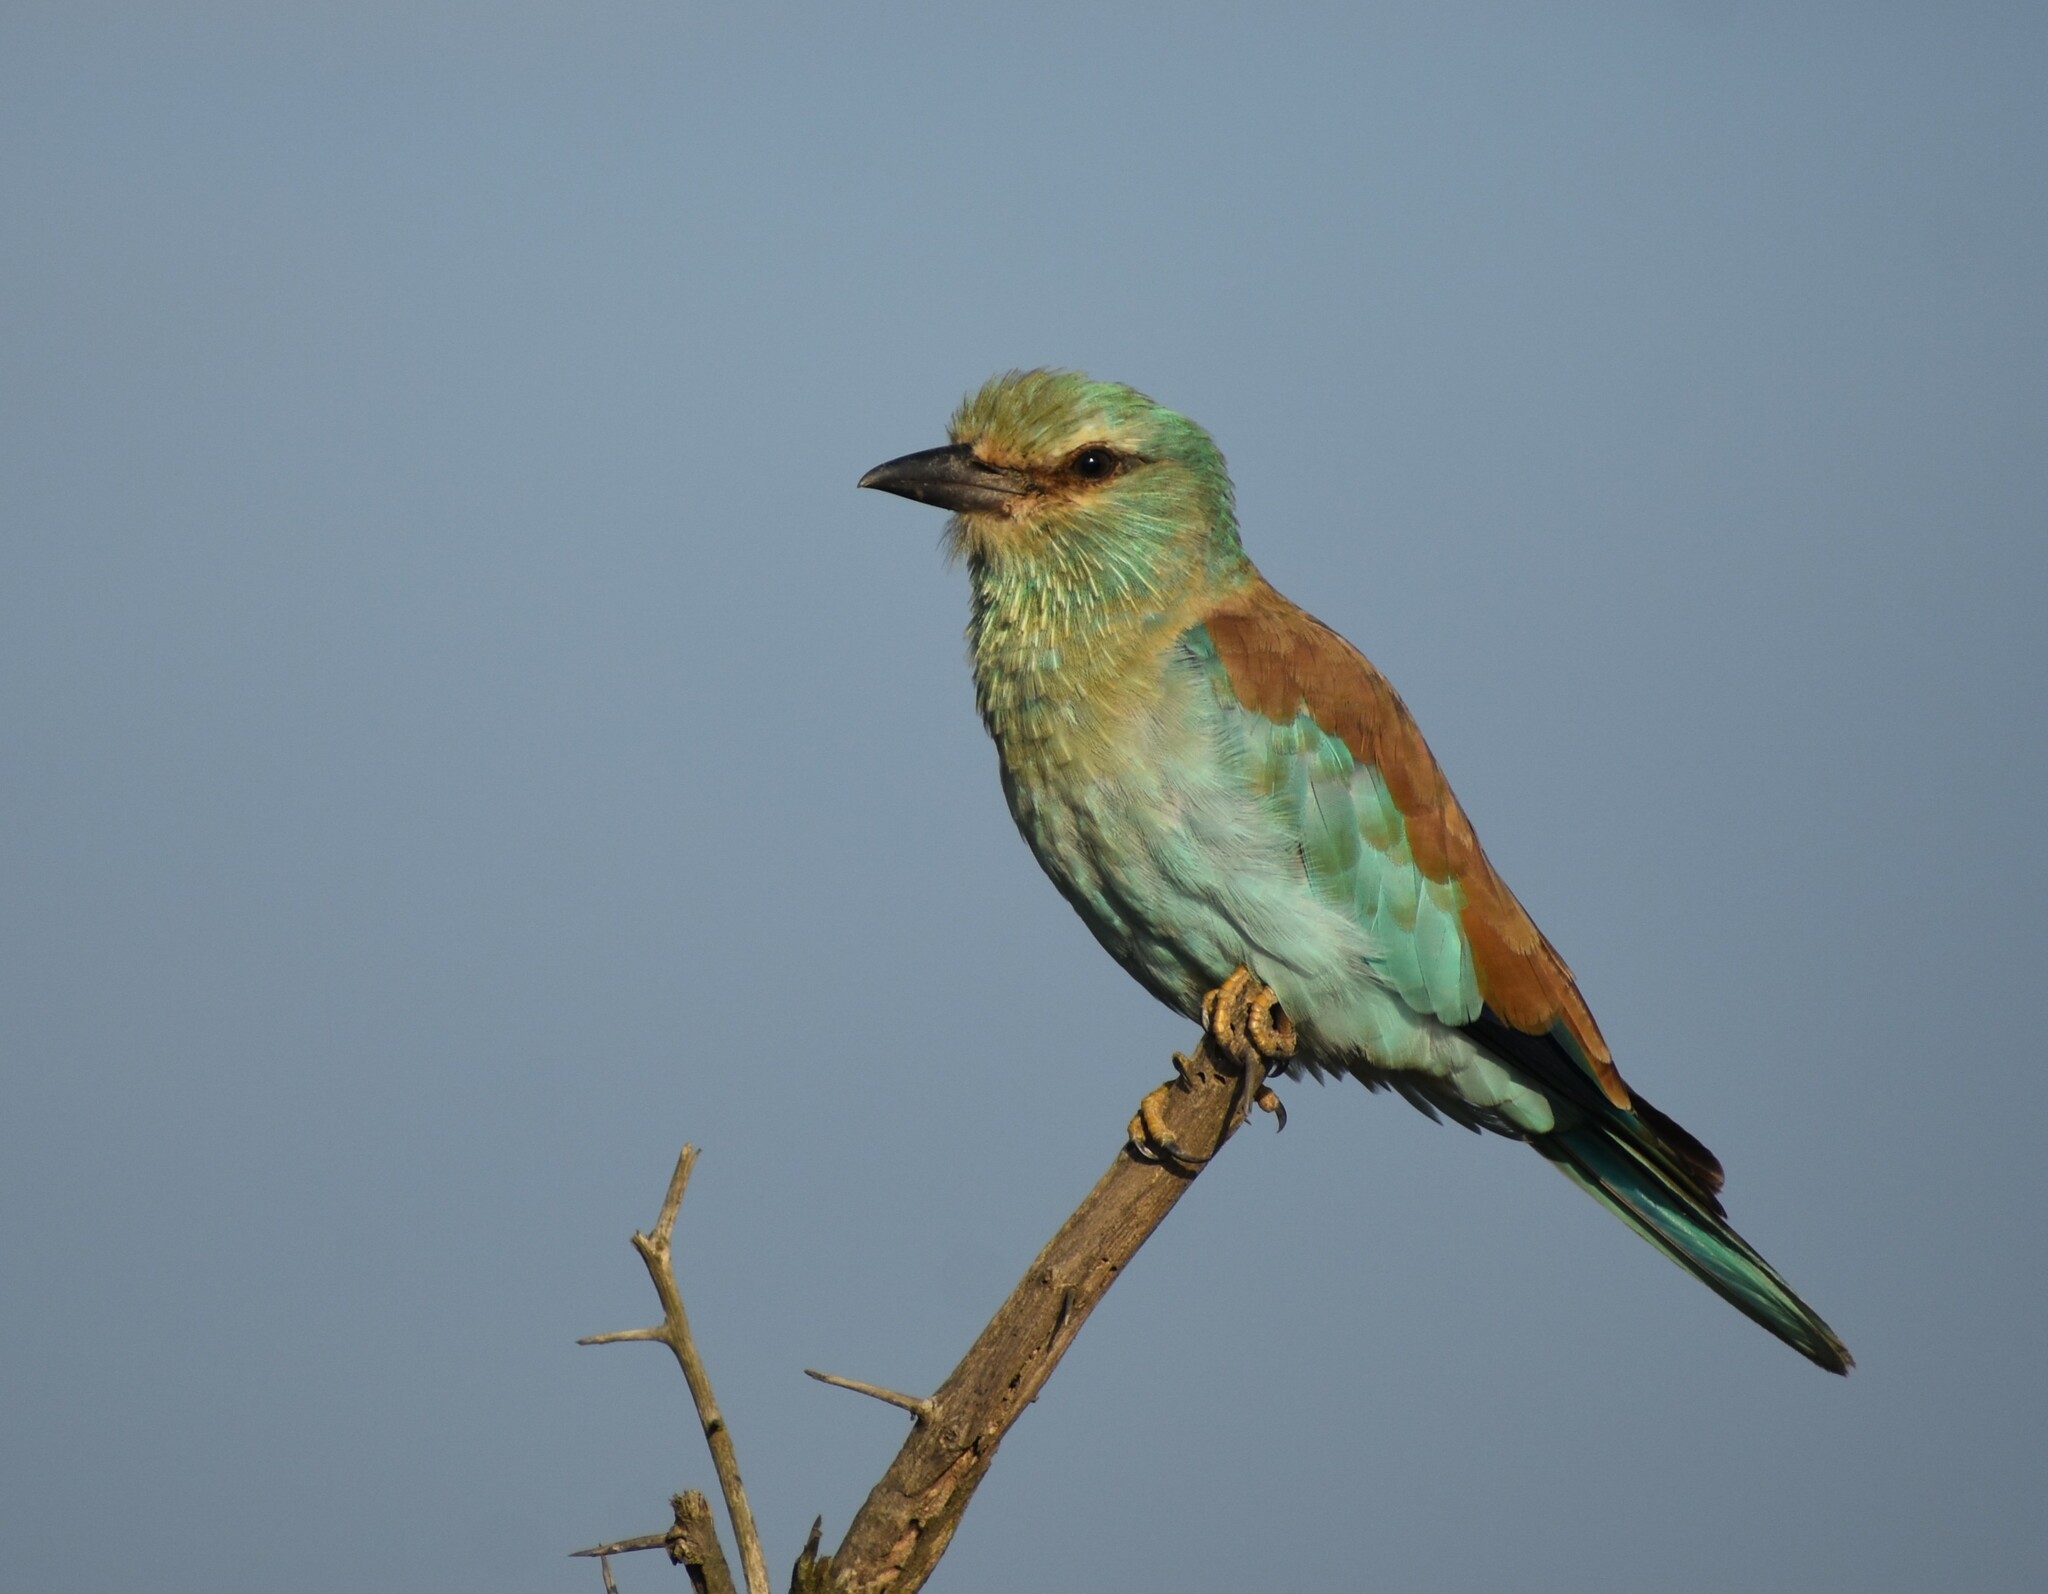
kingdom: Animalia
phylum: Chordata
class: Aves
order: Coraciiformes
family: Coraciidae
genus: Coracias
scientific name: Coracias garrulus
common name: European roller
